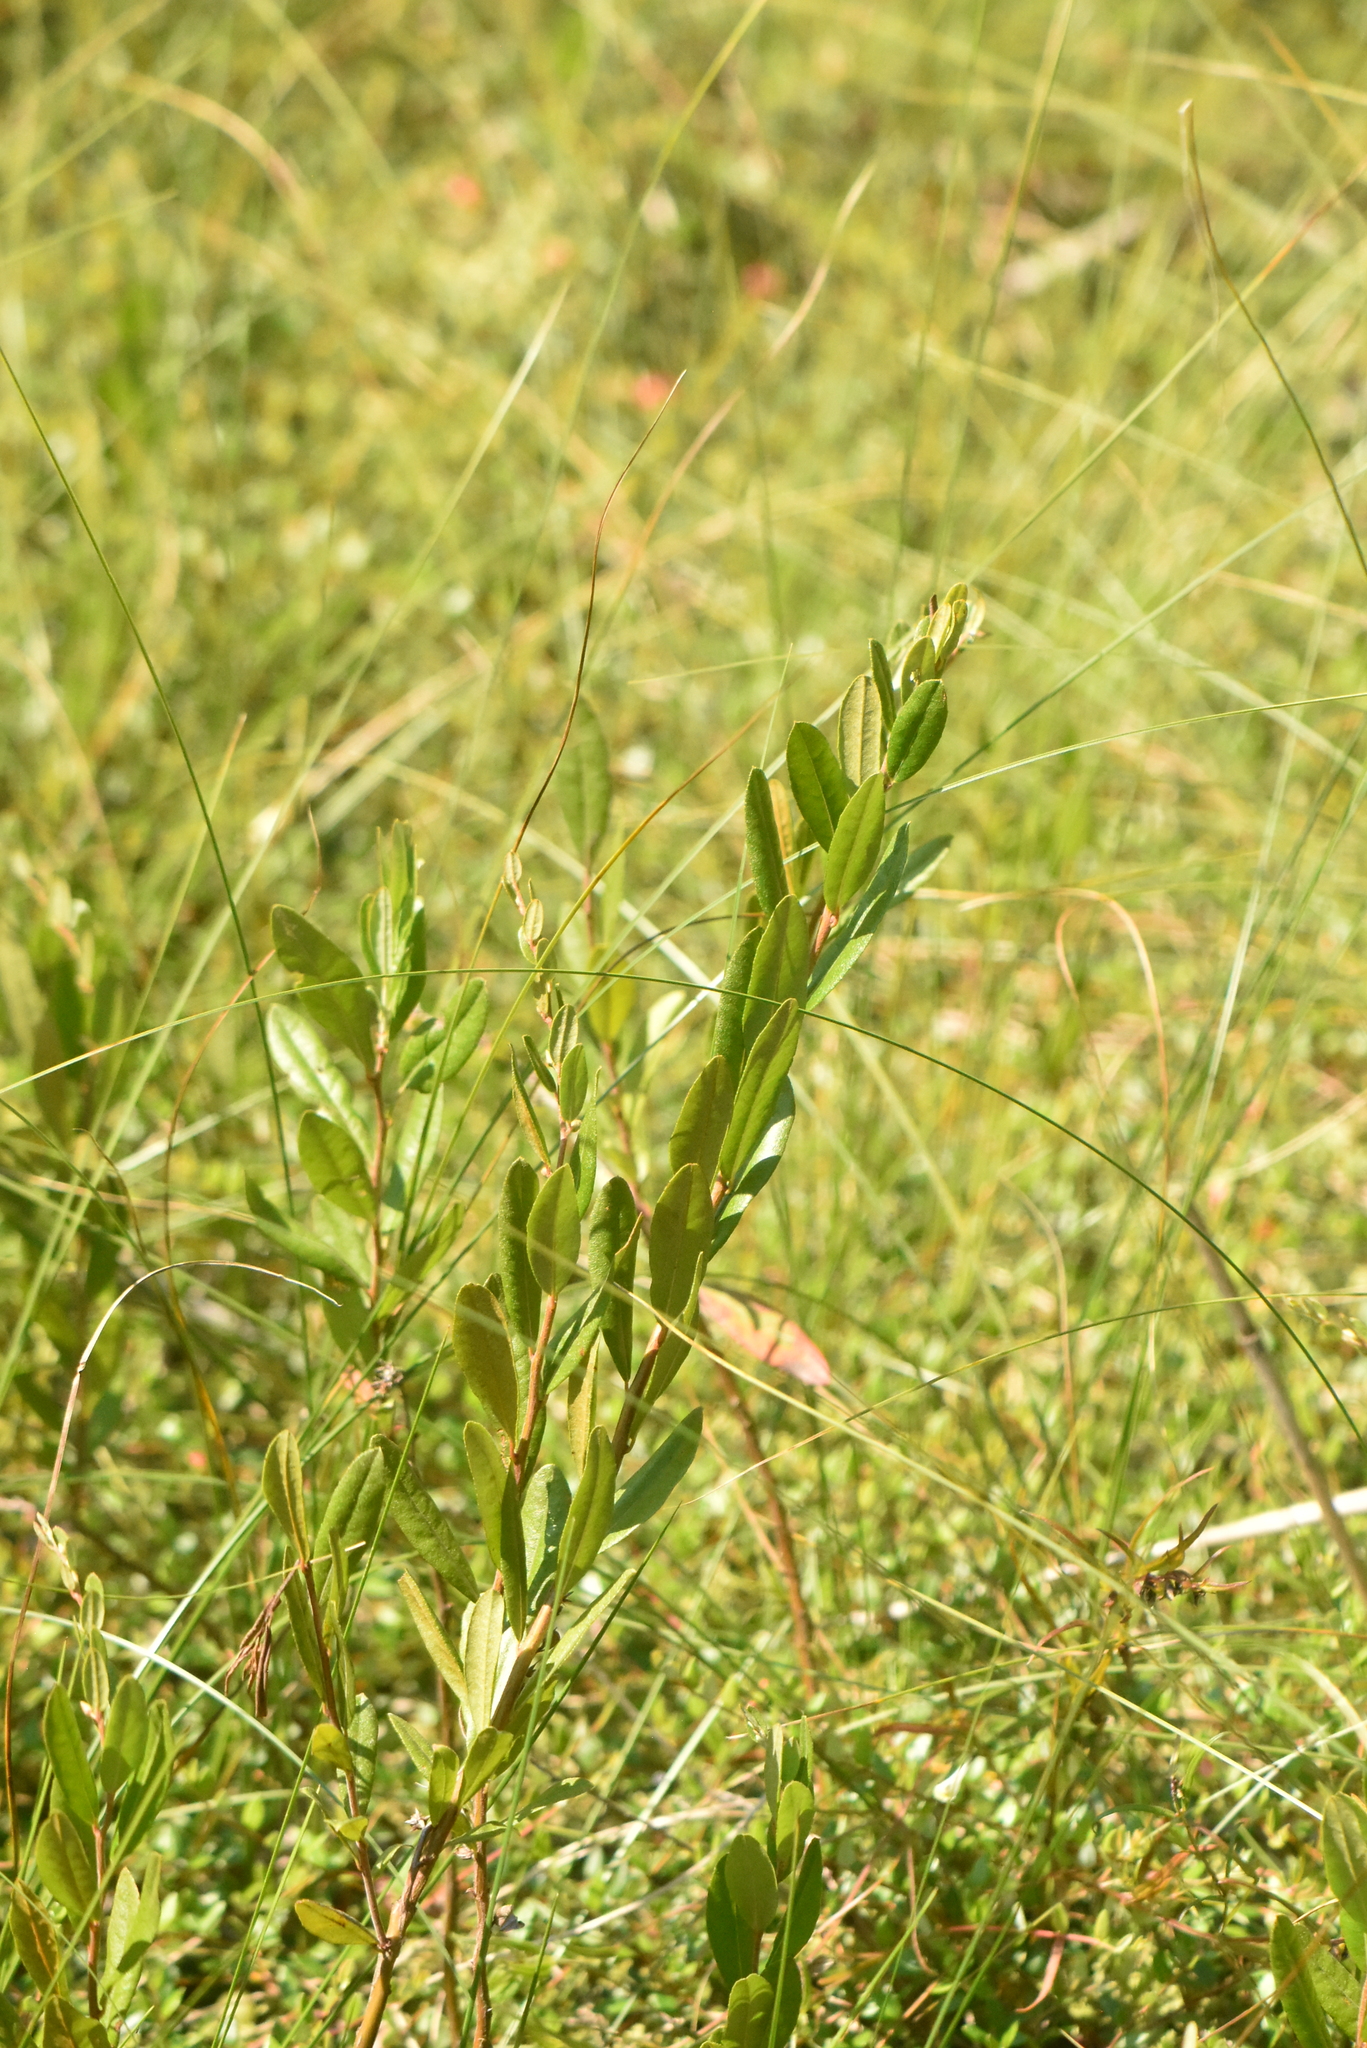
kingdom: Plantae
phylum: Tracheophyta
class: Magnoliopsida
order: Ericales
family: Ericaceae
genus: Chamaedaphne
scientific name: Chamaedaphne calyculata
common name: Leatherleaf
